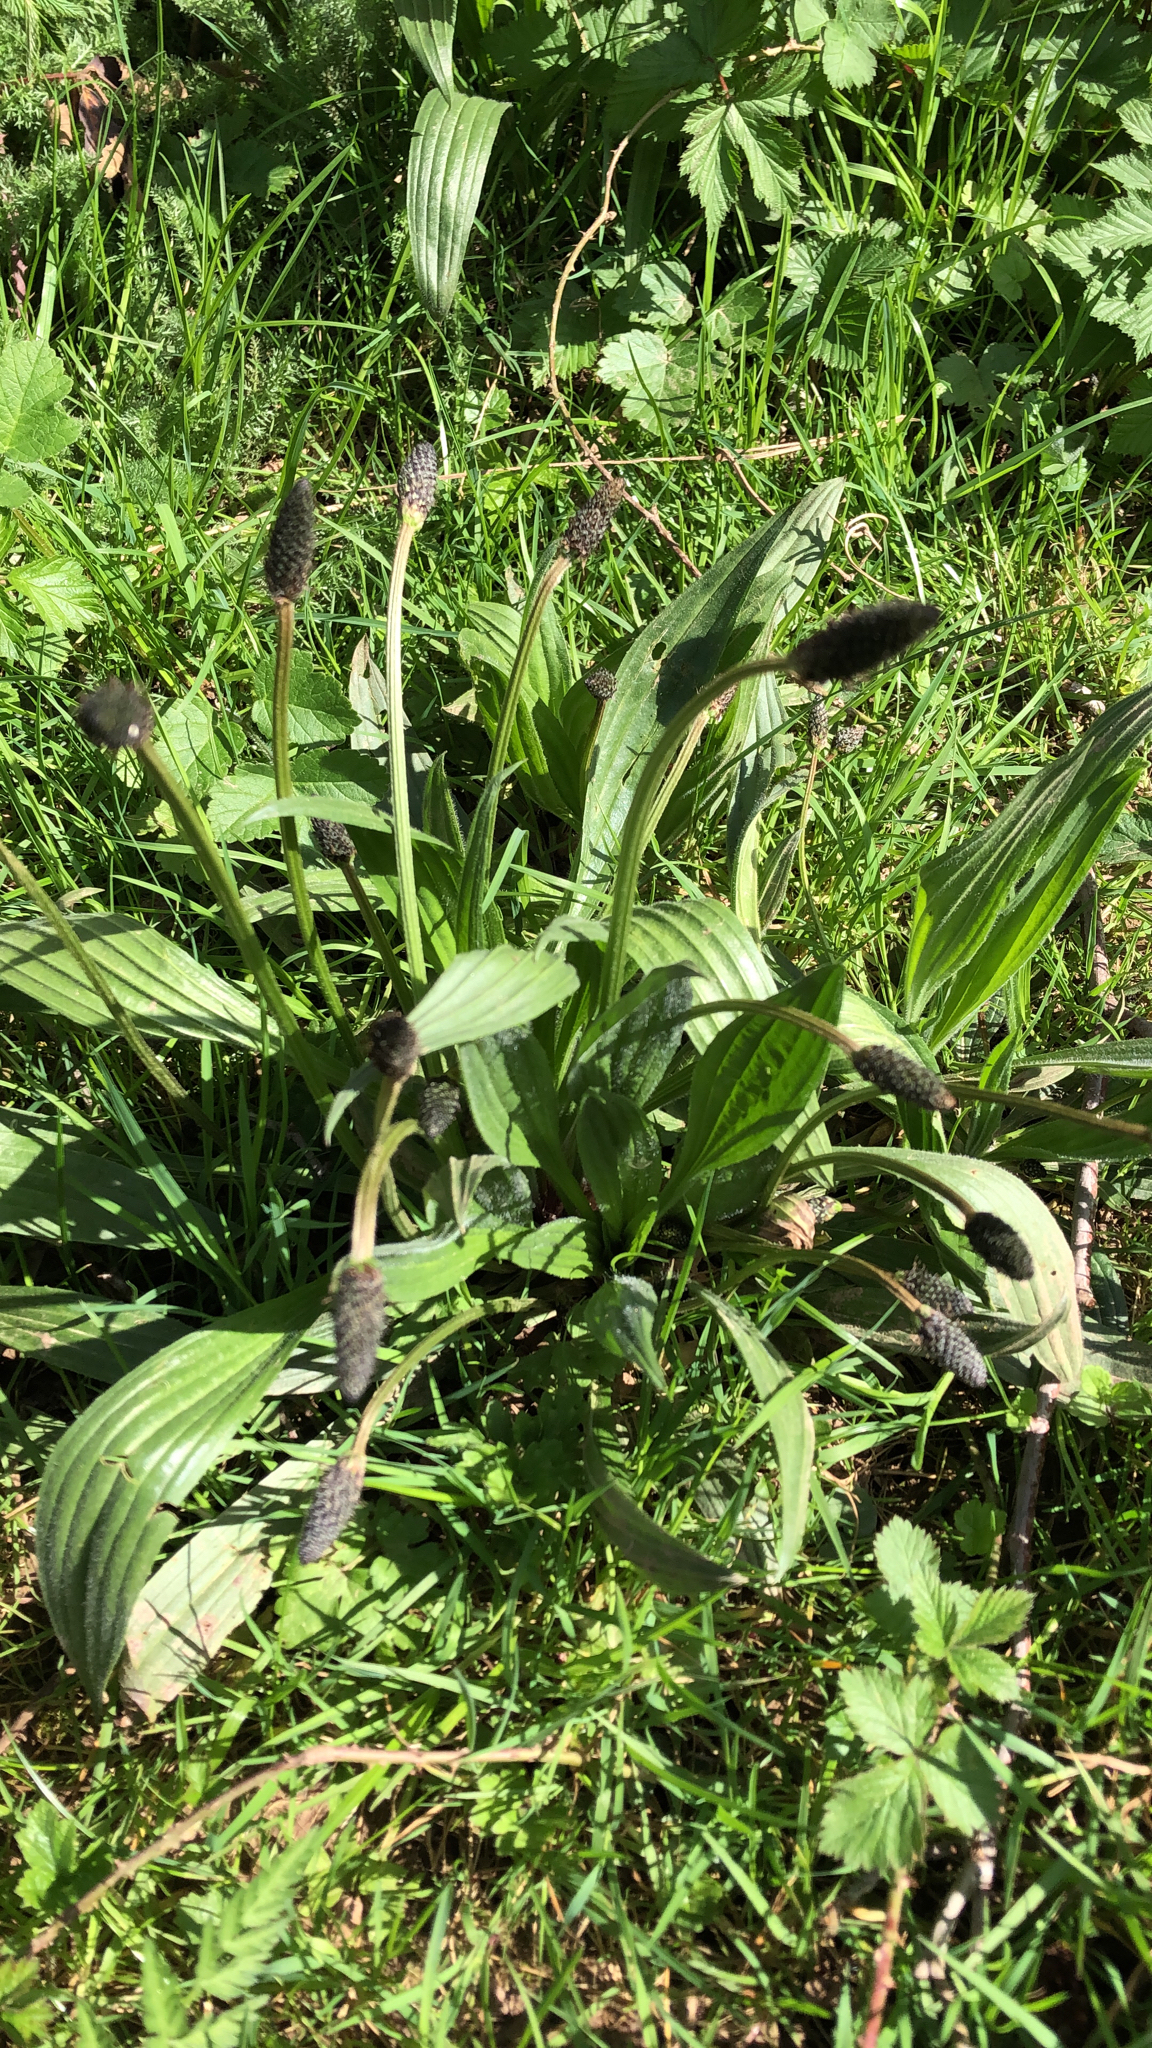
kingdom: Plantae
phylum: Tracheophyta
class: Magnoliopsida
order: Lamiales
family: Plantaginaceae
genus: Plantago
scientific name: Plantago lanceolata
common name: Ribwort plantain
